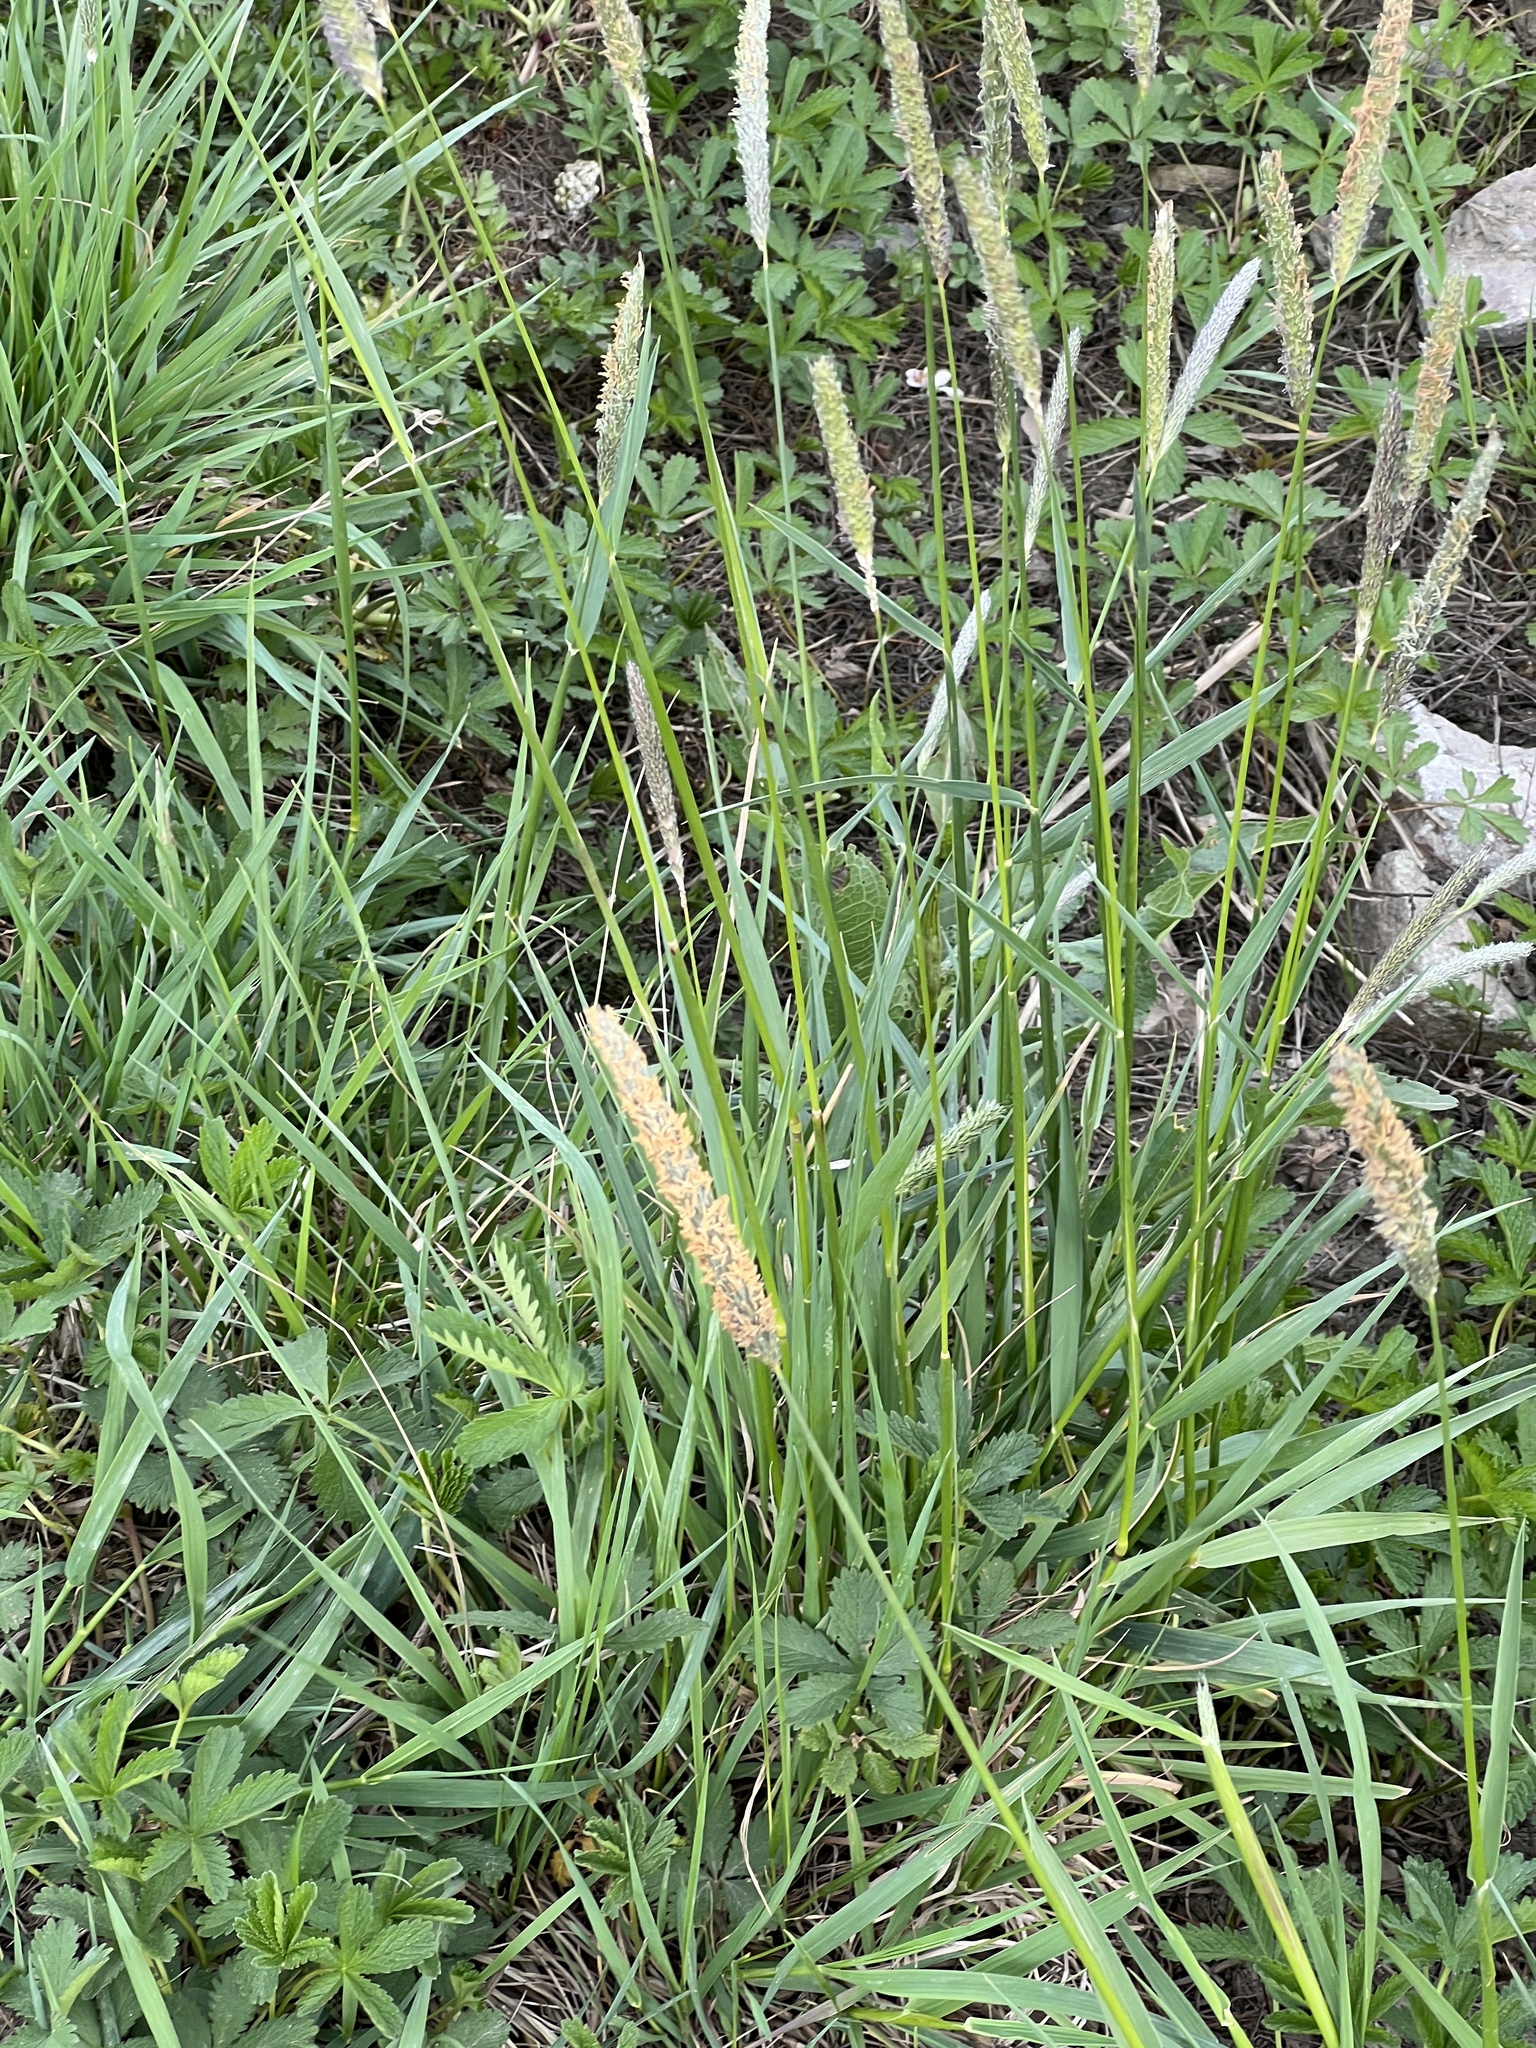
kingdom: Plantae
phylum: Tracheophyta
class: Liliopsida
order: Poales
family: Poaceae
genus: Alopecurus
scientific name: Alopecurus pratensis
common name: Meadow foxtail
